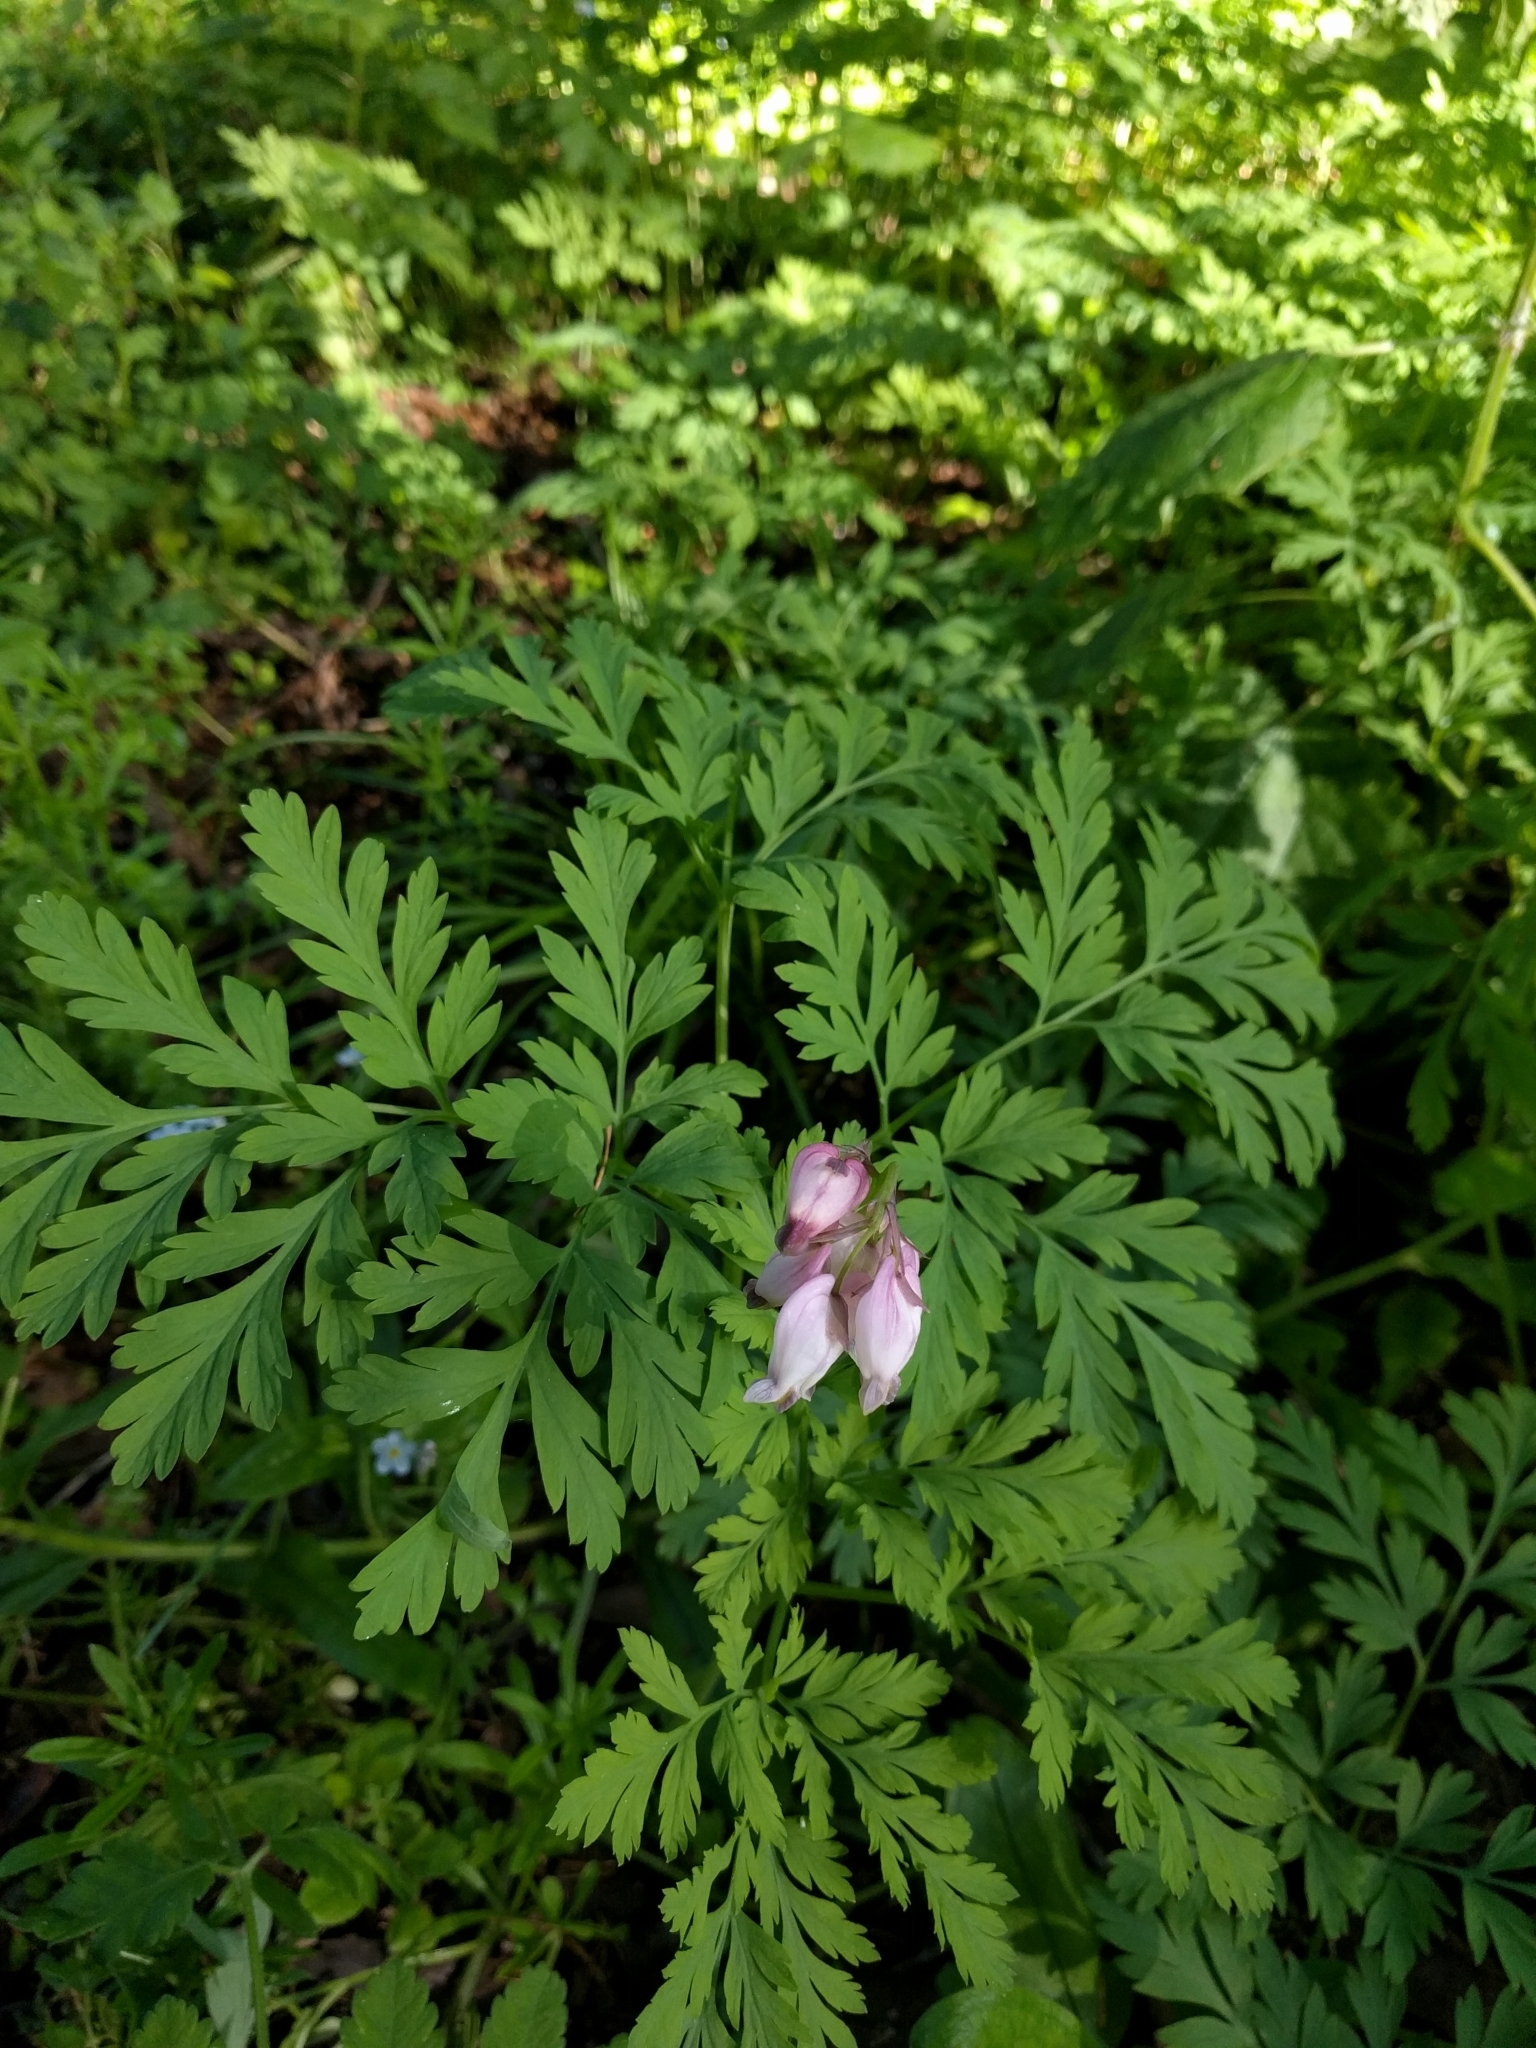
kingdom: Plantae
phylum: Tracheophyta
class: Magnoliopsida
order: Ranunculales
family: Papaveraceae
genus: Dicentra
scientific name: Dicentra formosa
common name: Bleeding-heart
